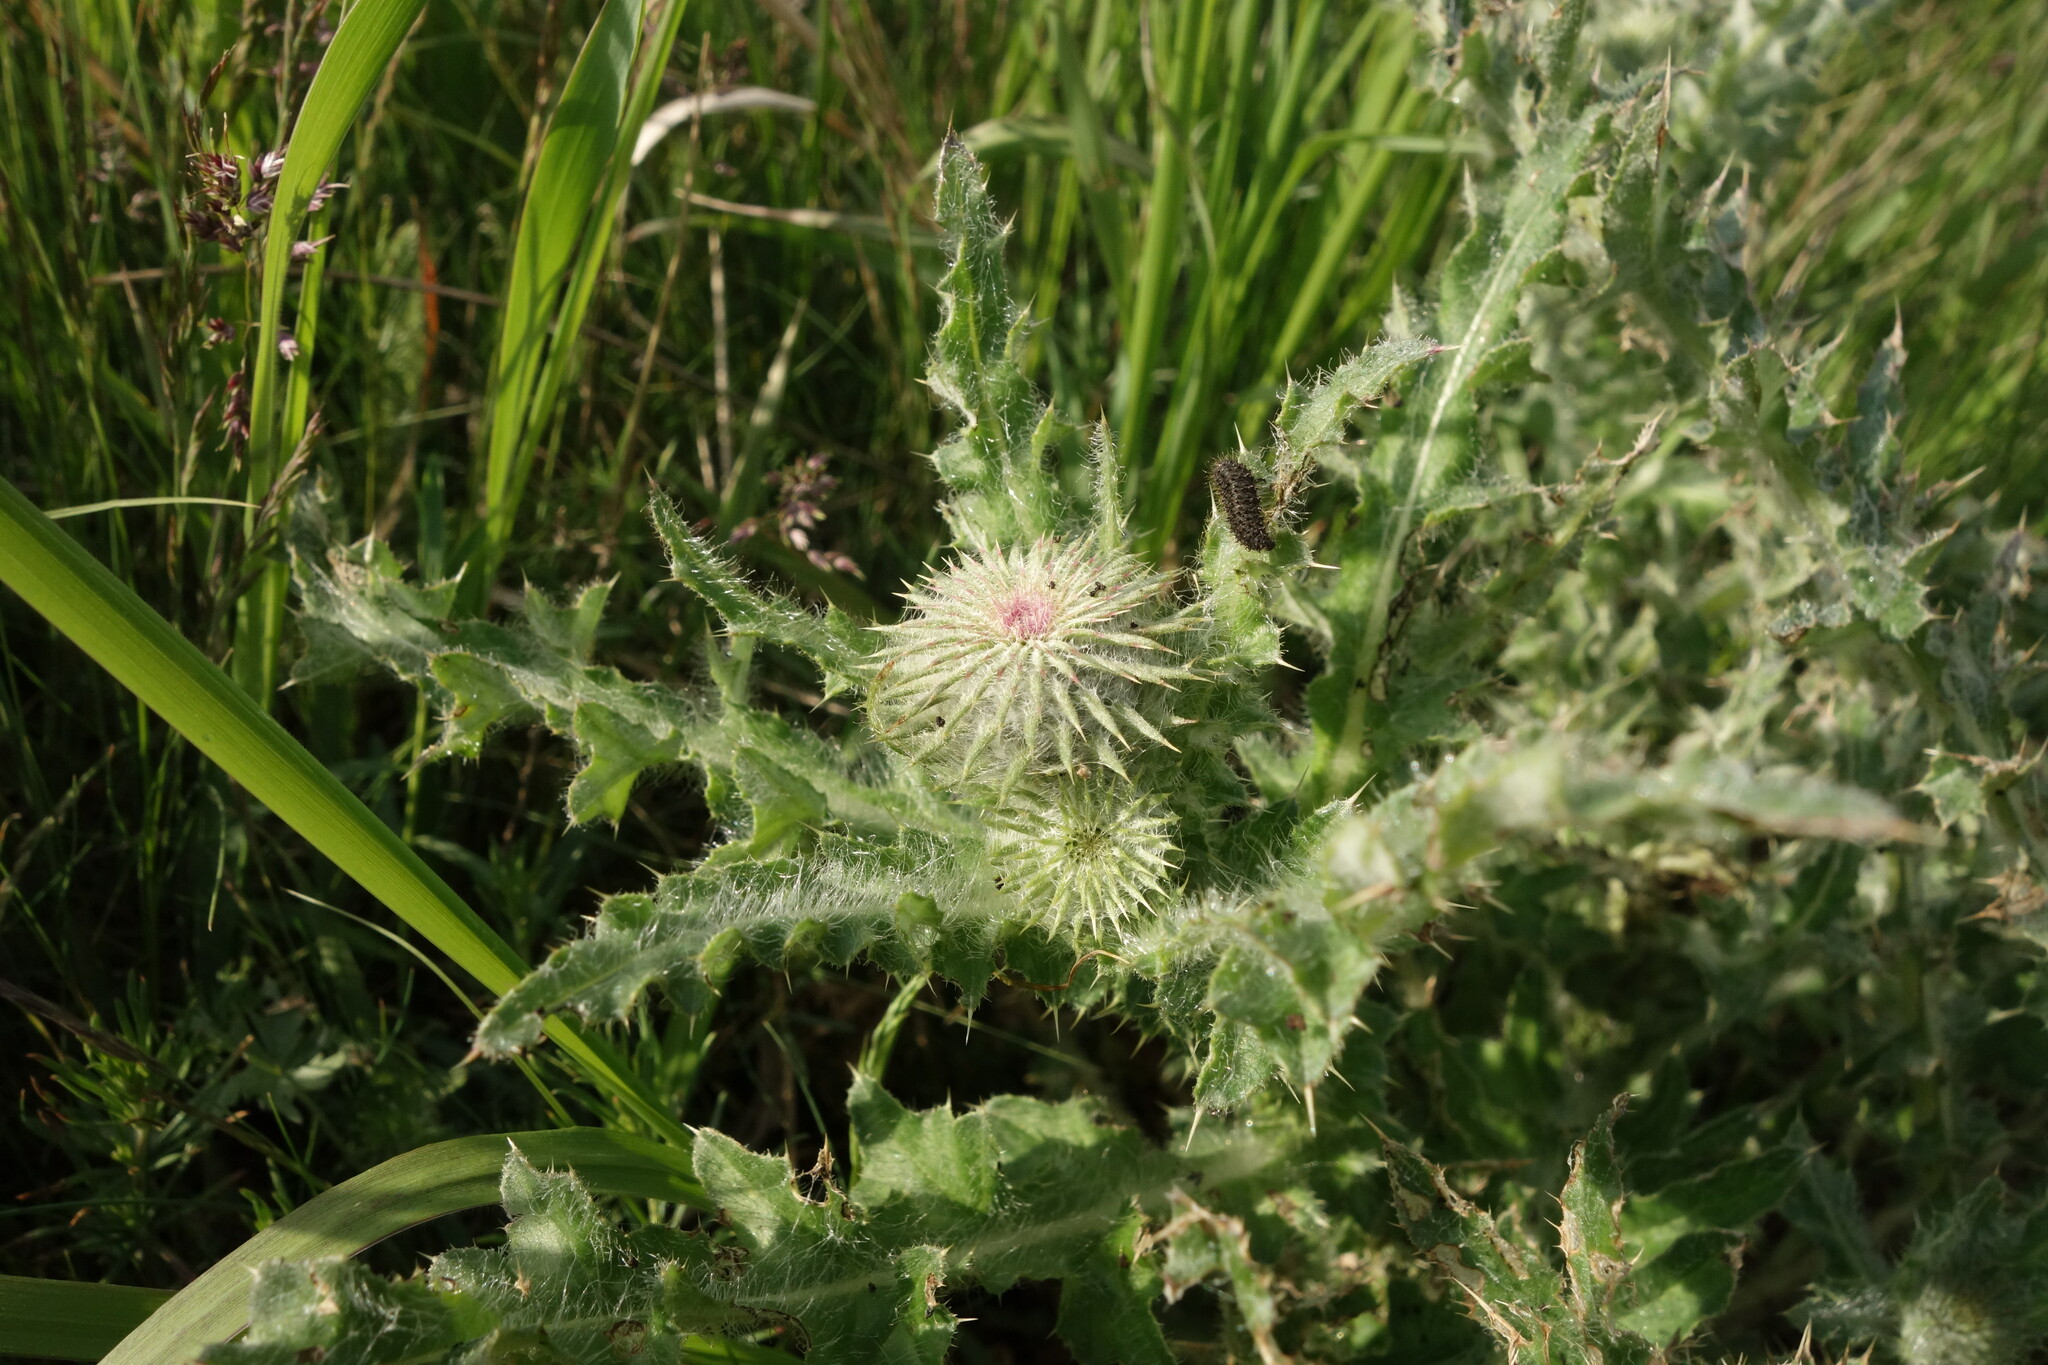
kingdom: Plantae
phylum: Tracheophyta
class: Magnoliopsida
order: Asterales
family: Asteraceae
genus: Carduus
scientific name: Carduus uncinatus
